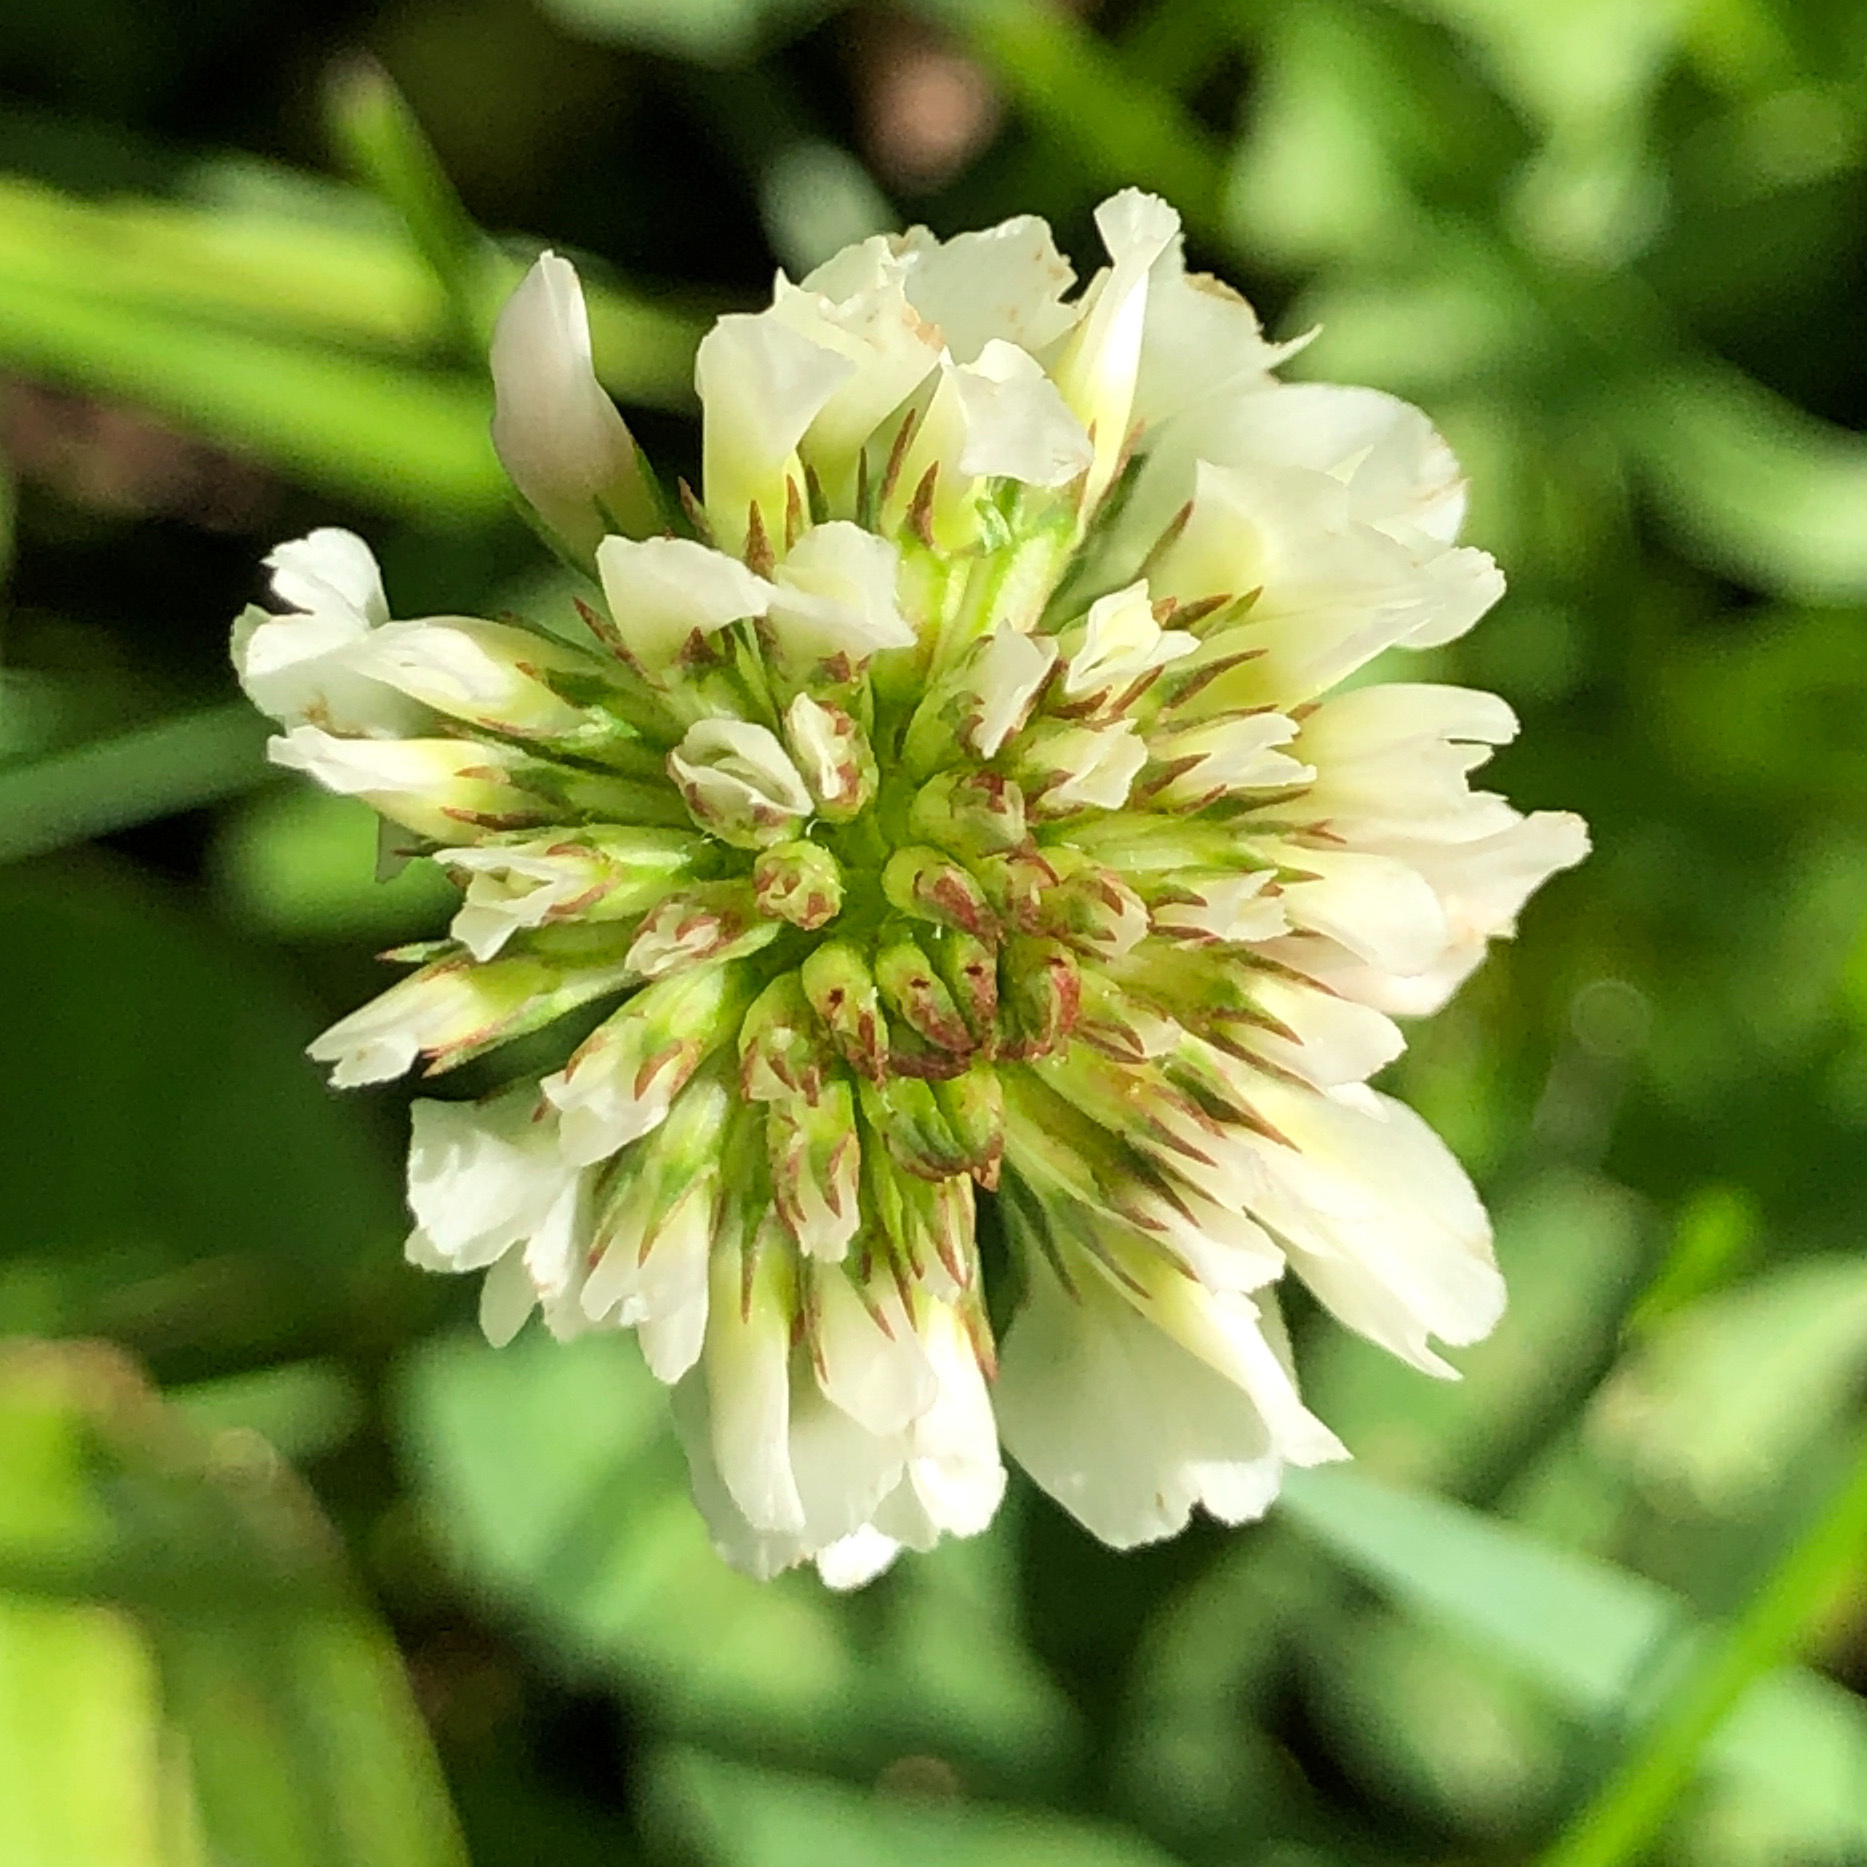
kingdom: Plantae
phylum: Tracheophyta
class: Magnoliopsida
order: Fabales
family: Fabaceae
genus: Trifolium
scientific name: Trifolium repens
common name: White clover
